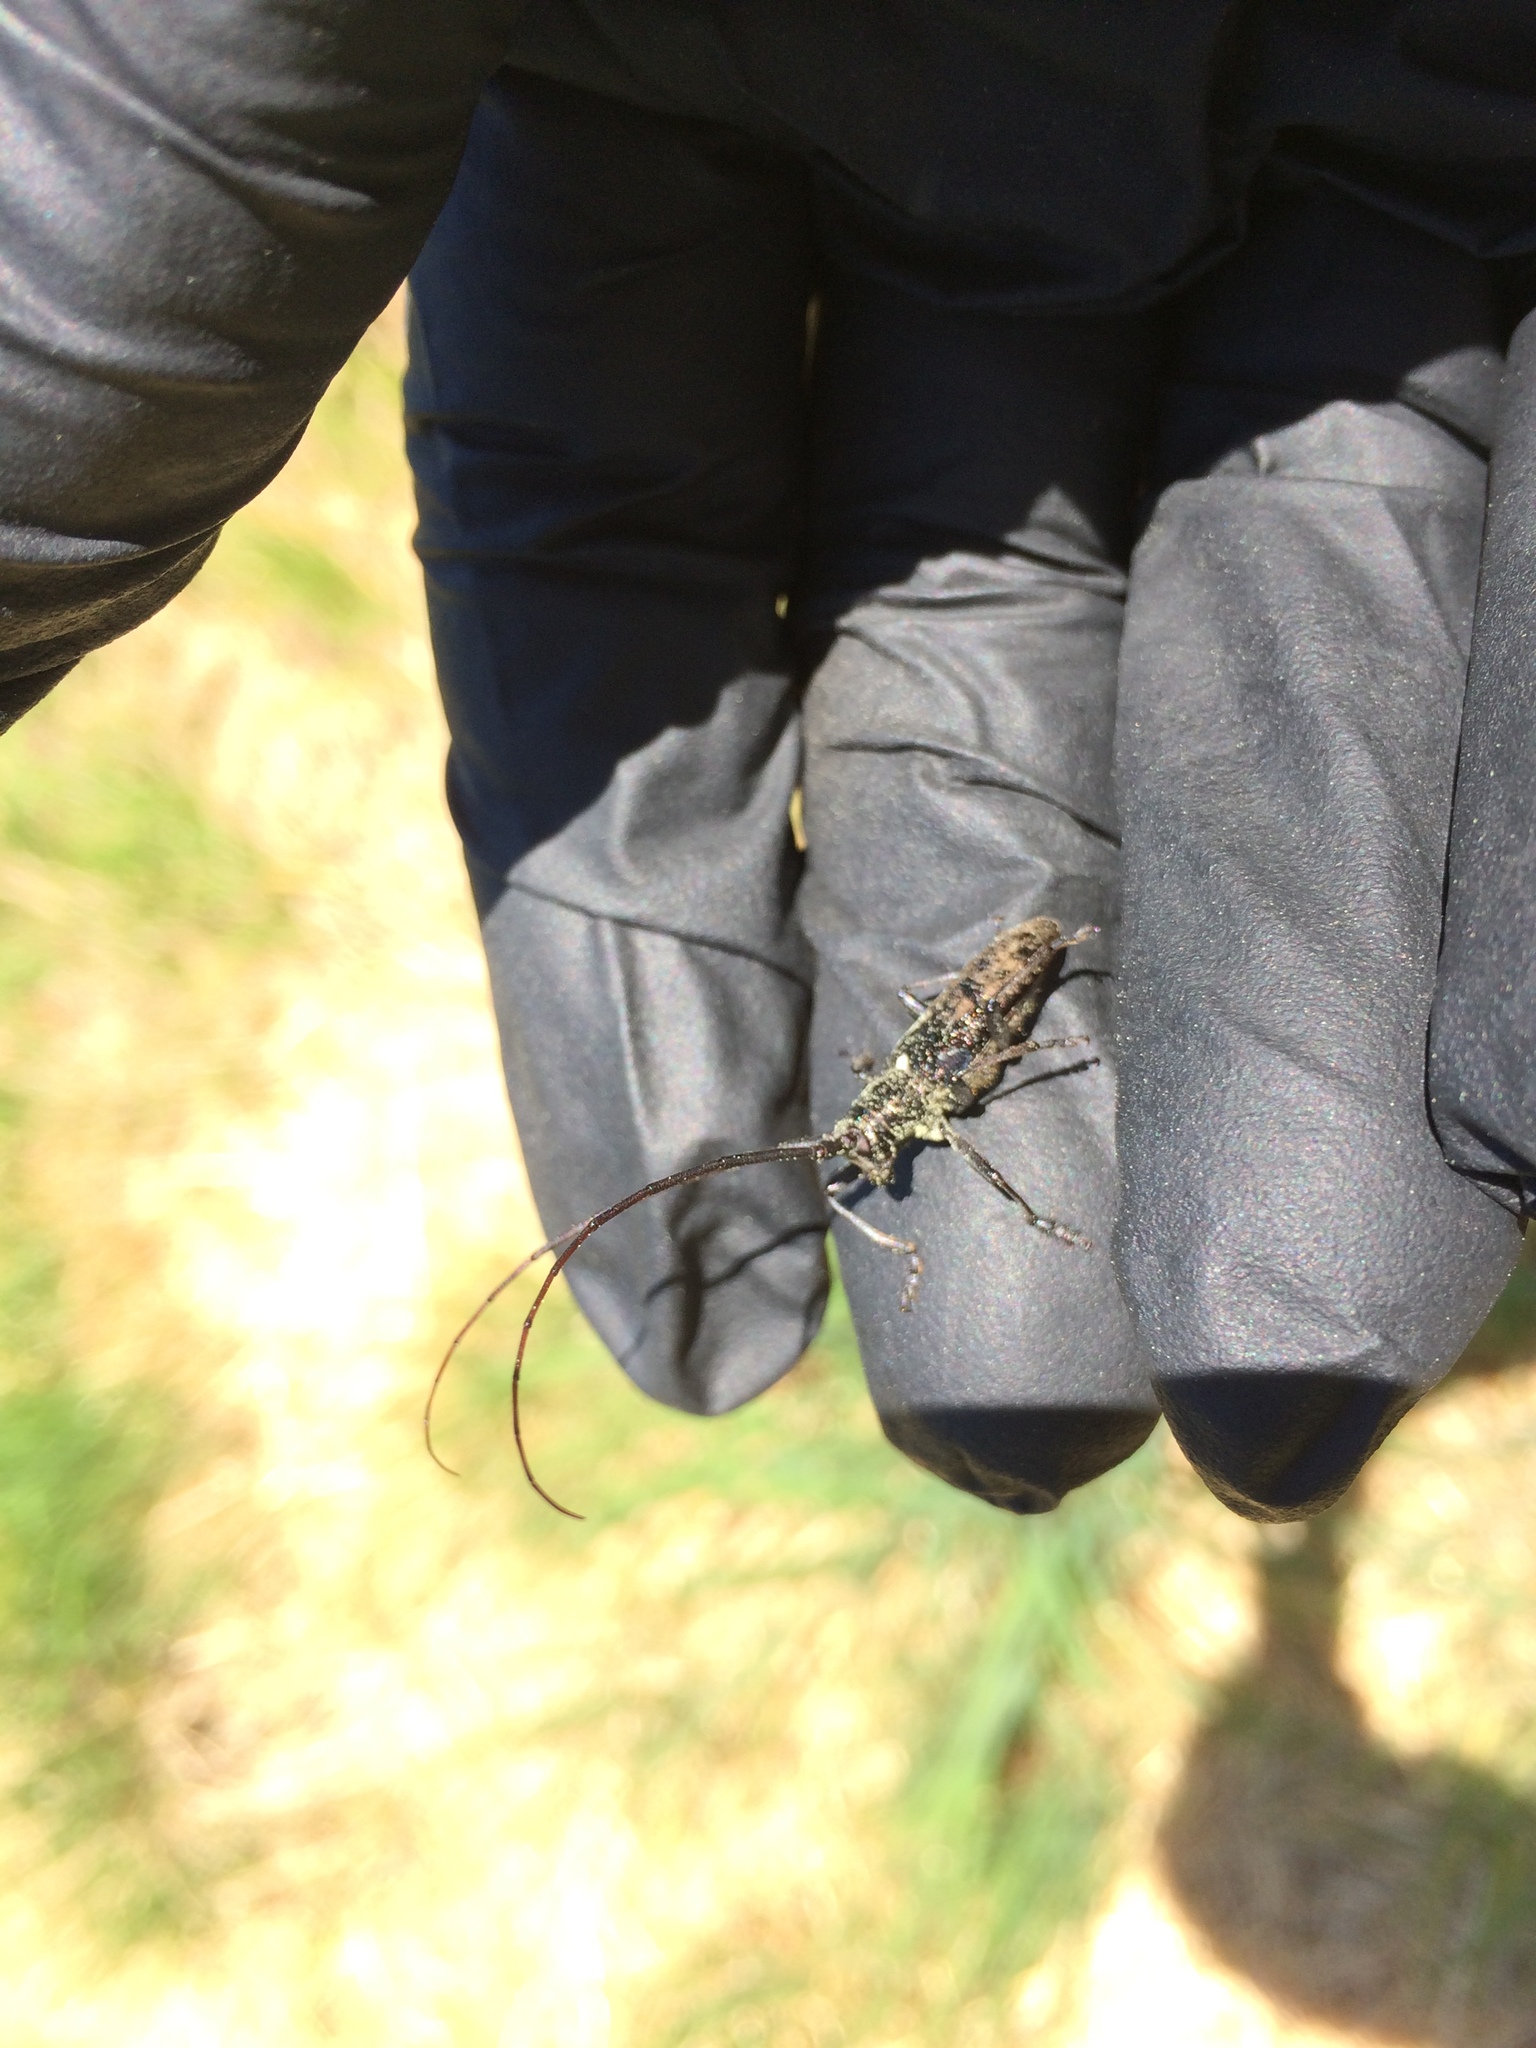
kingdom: Animalia
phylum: Arthropoda
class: Insecta
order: Coleoptera
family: Cerambycidae
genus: Monochamus
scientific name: Monochamus scutellatus
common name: White-spotted sawyer beetle
